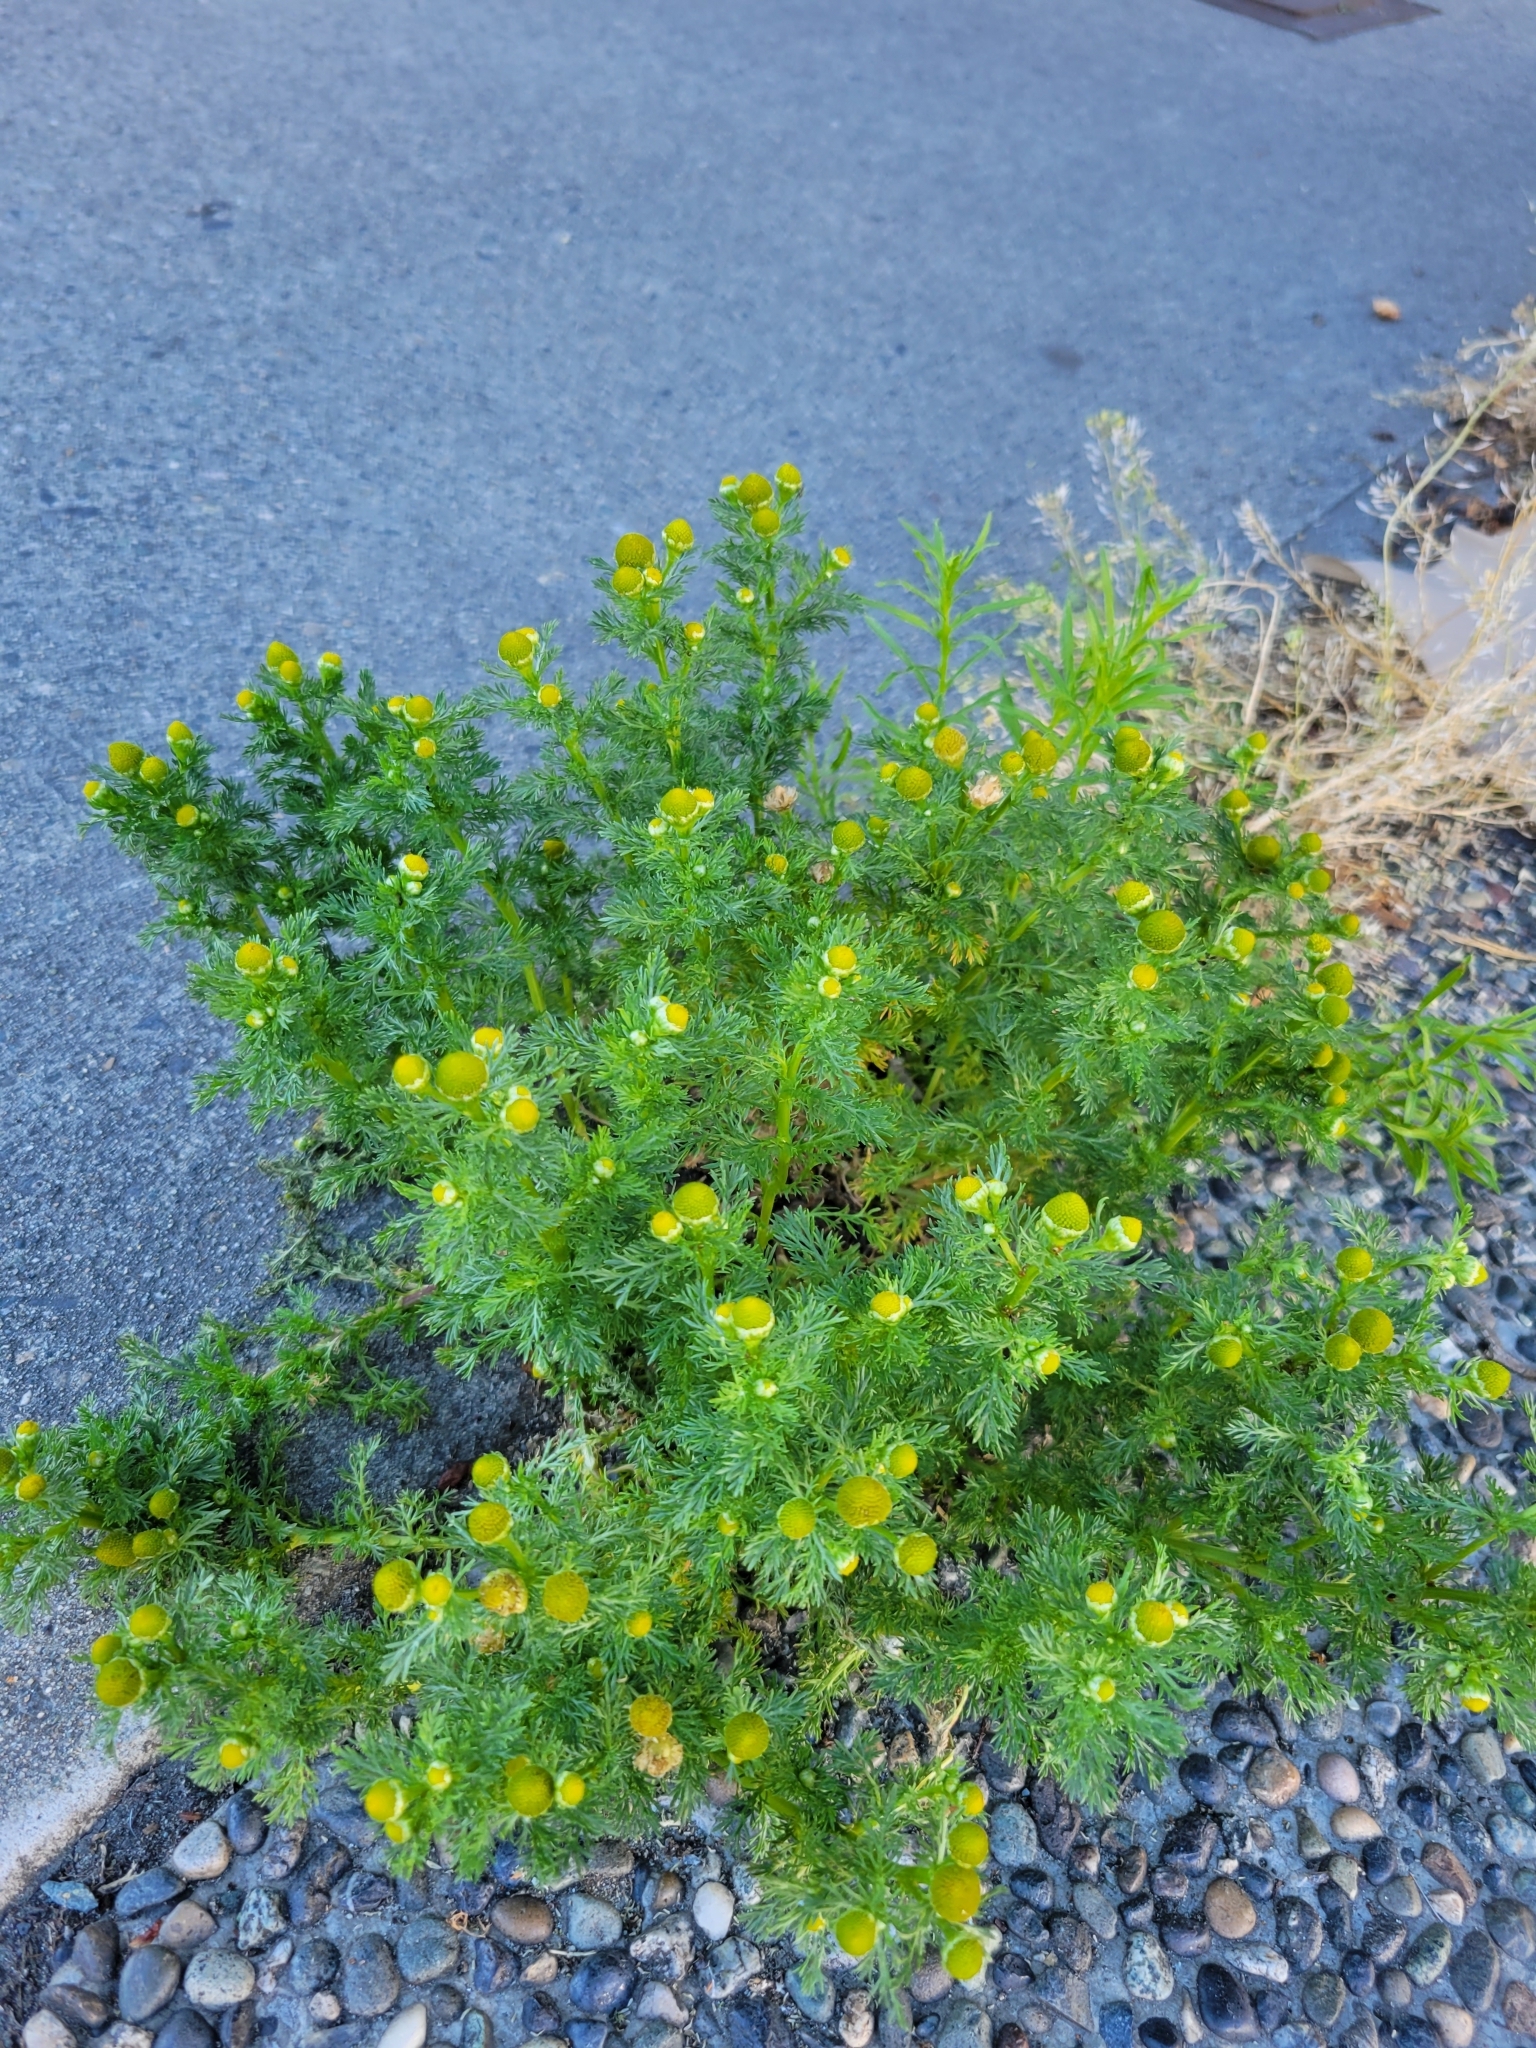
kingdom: Plantae
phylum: Tracheophyta
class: Magnoliopsida
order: Asterales
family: Asteraceae
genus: Matricaria
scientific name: Matricaria discoidea
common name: Disc mayweed
